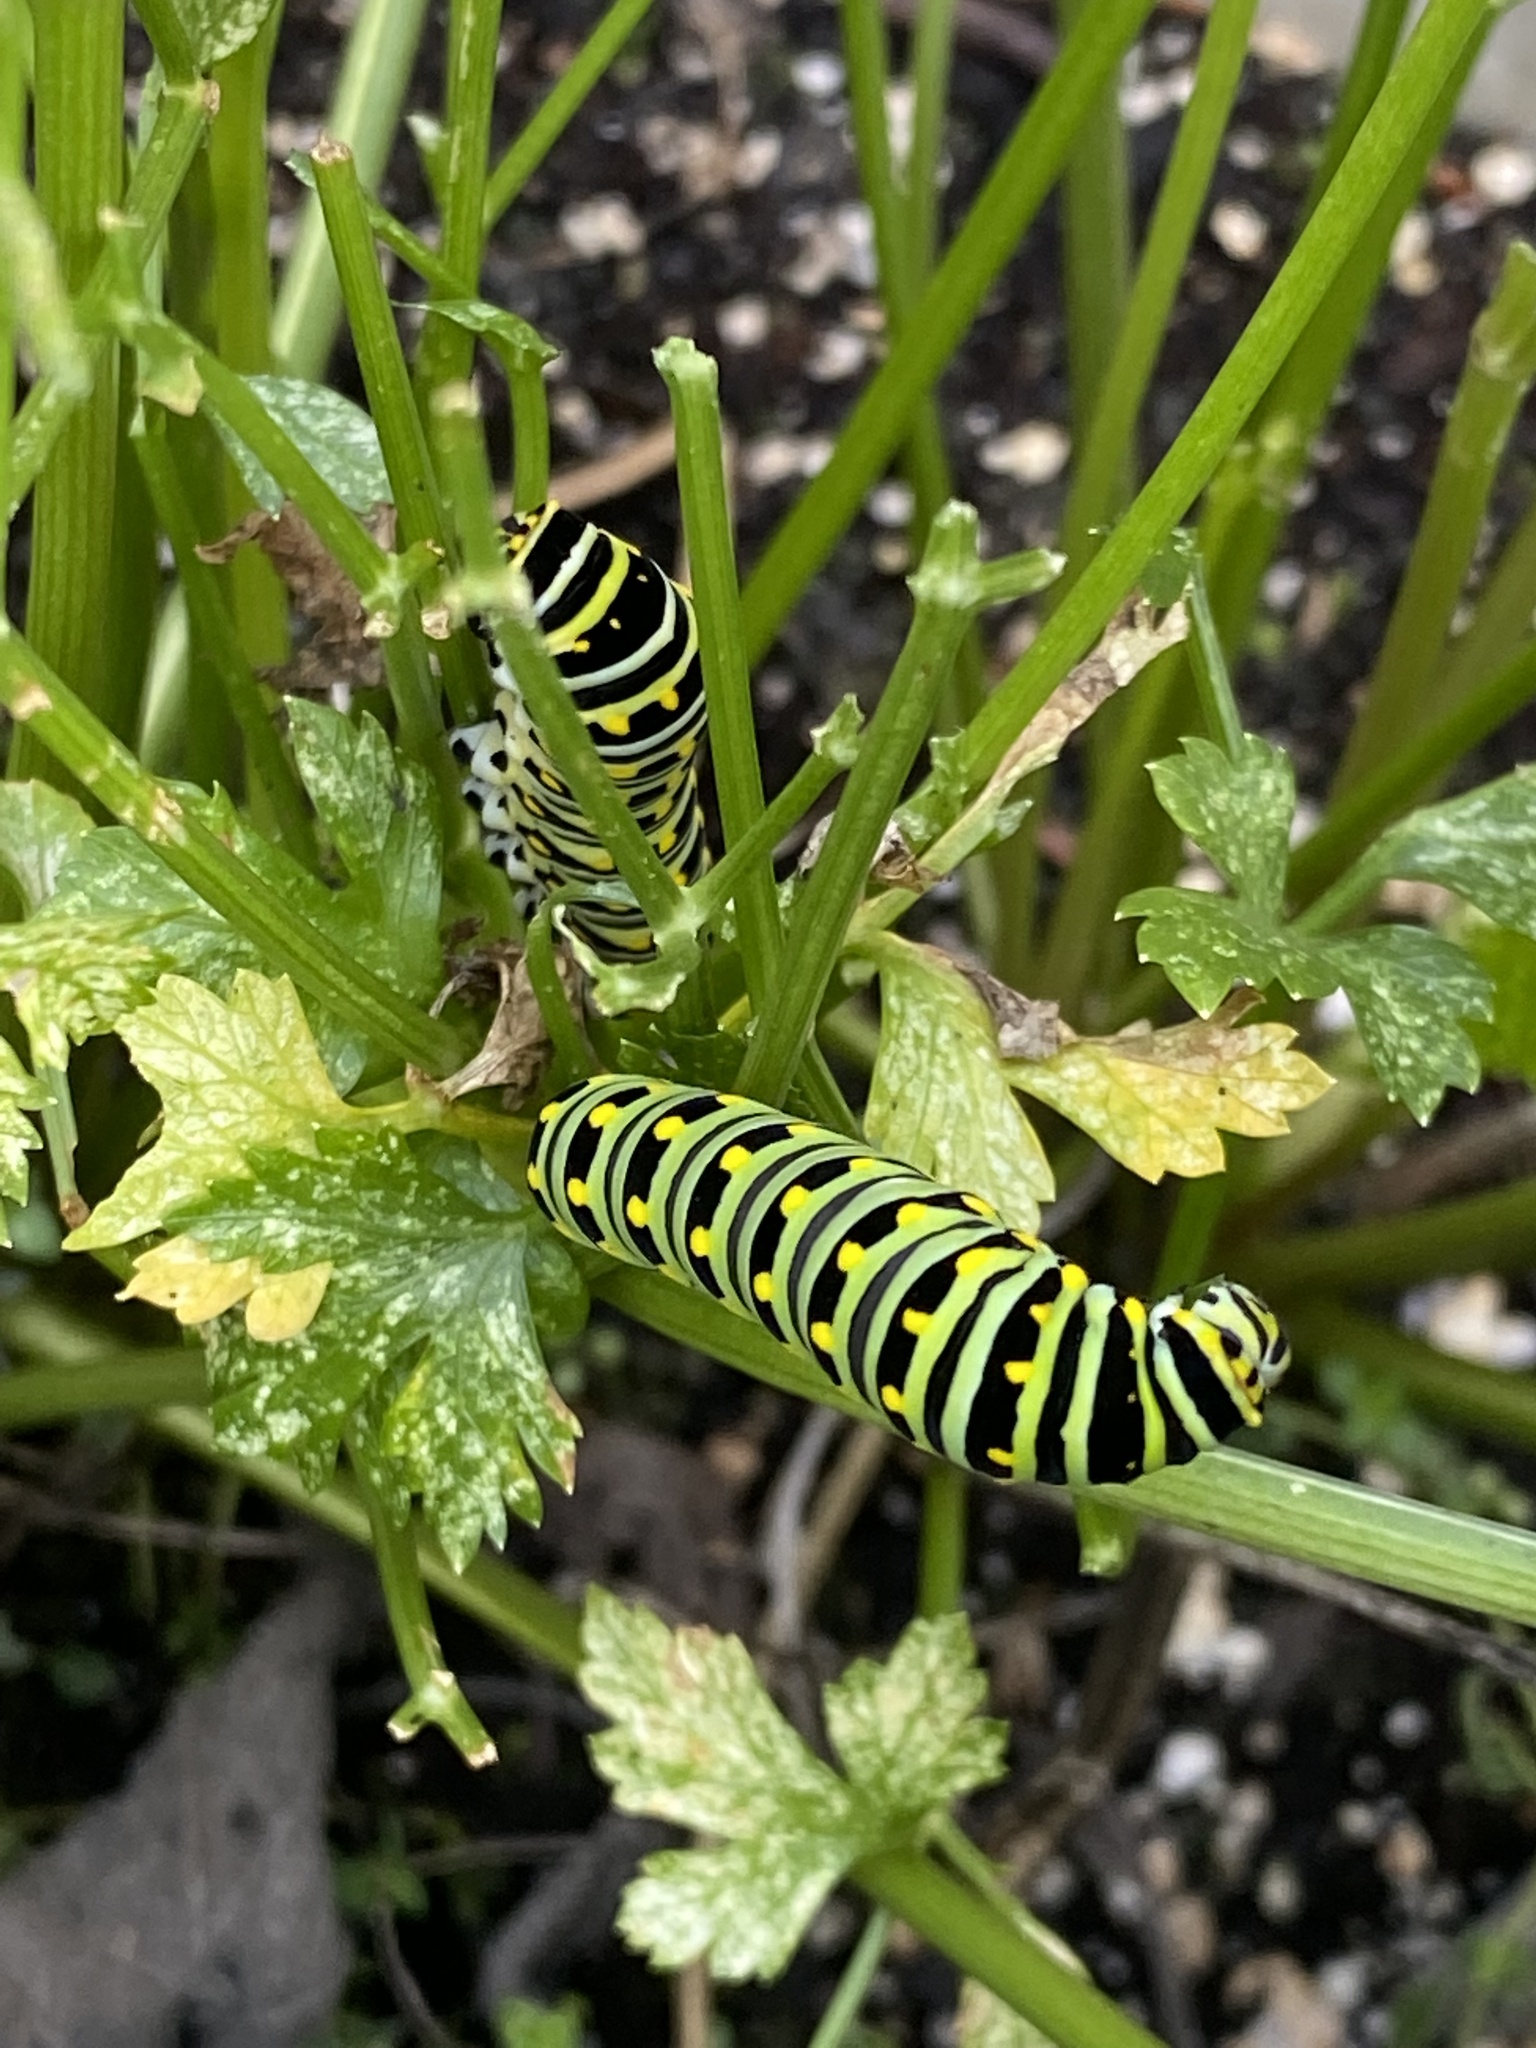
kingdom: Animalia
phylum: Arthropoda
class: Insecta
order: Lepidoptera
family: Papilionidae
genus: Papilio
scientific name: Papilio polyxenes
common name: Black swallowtail
